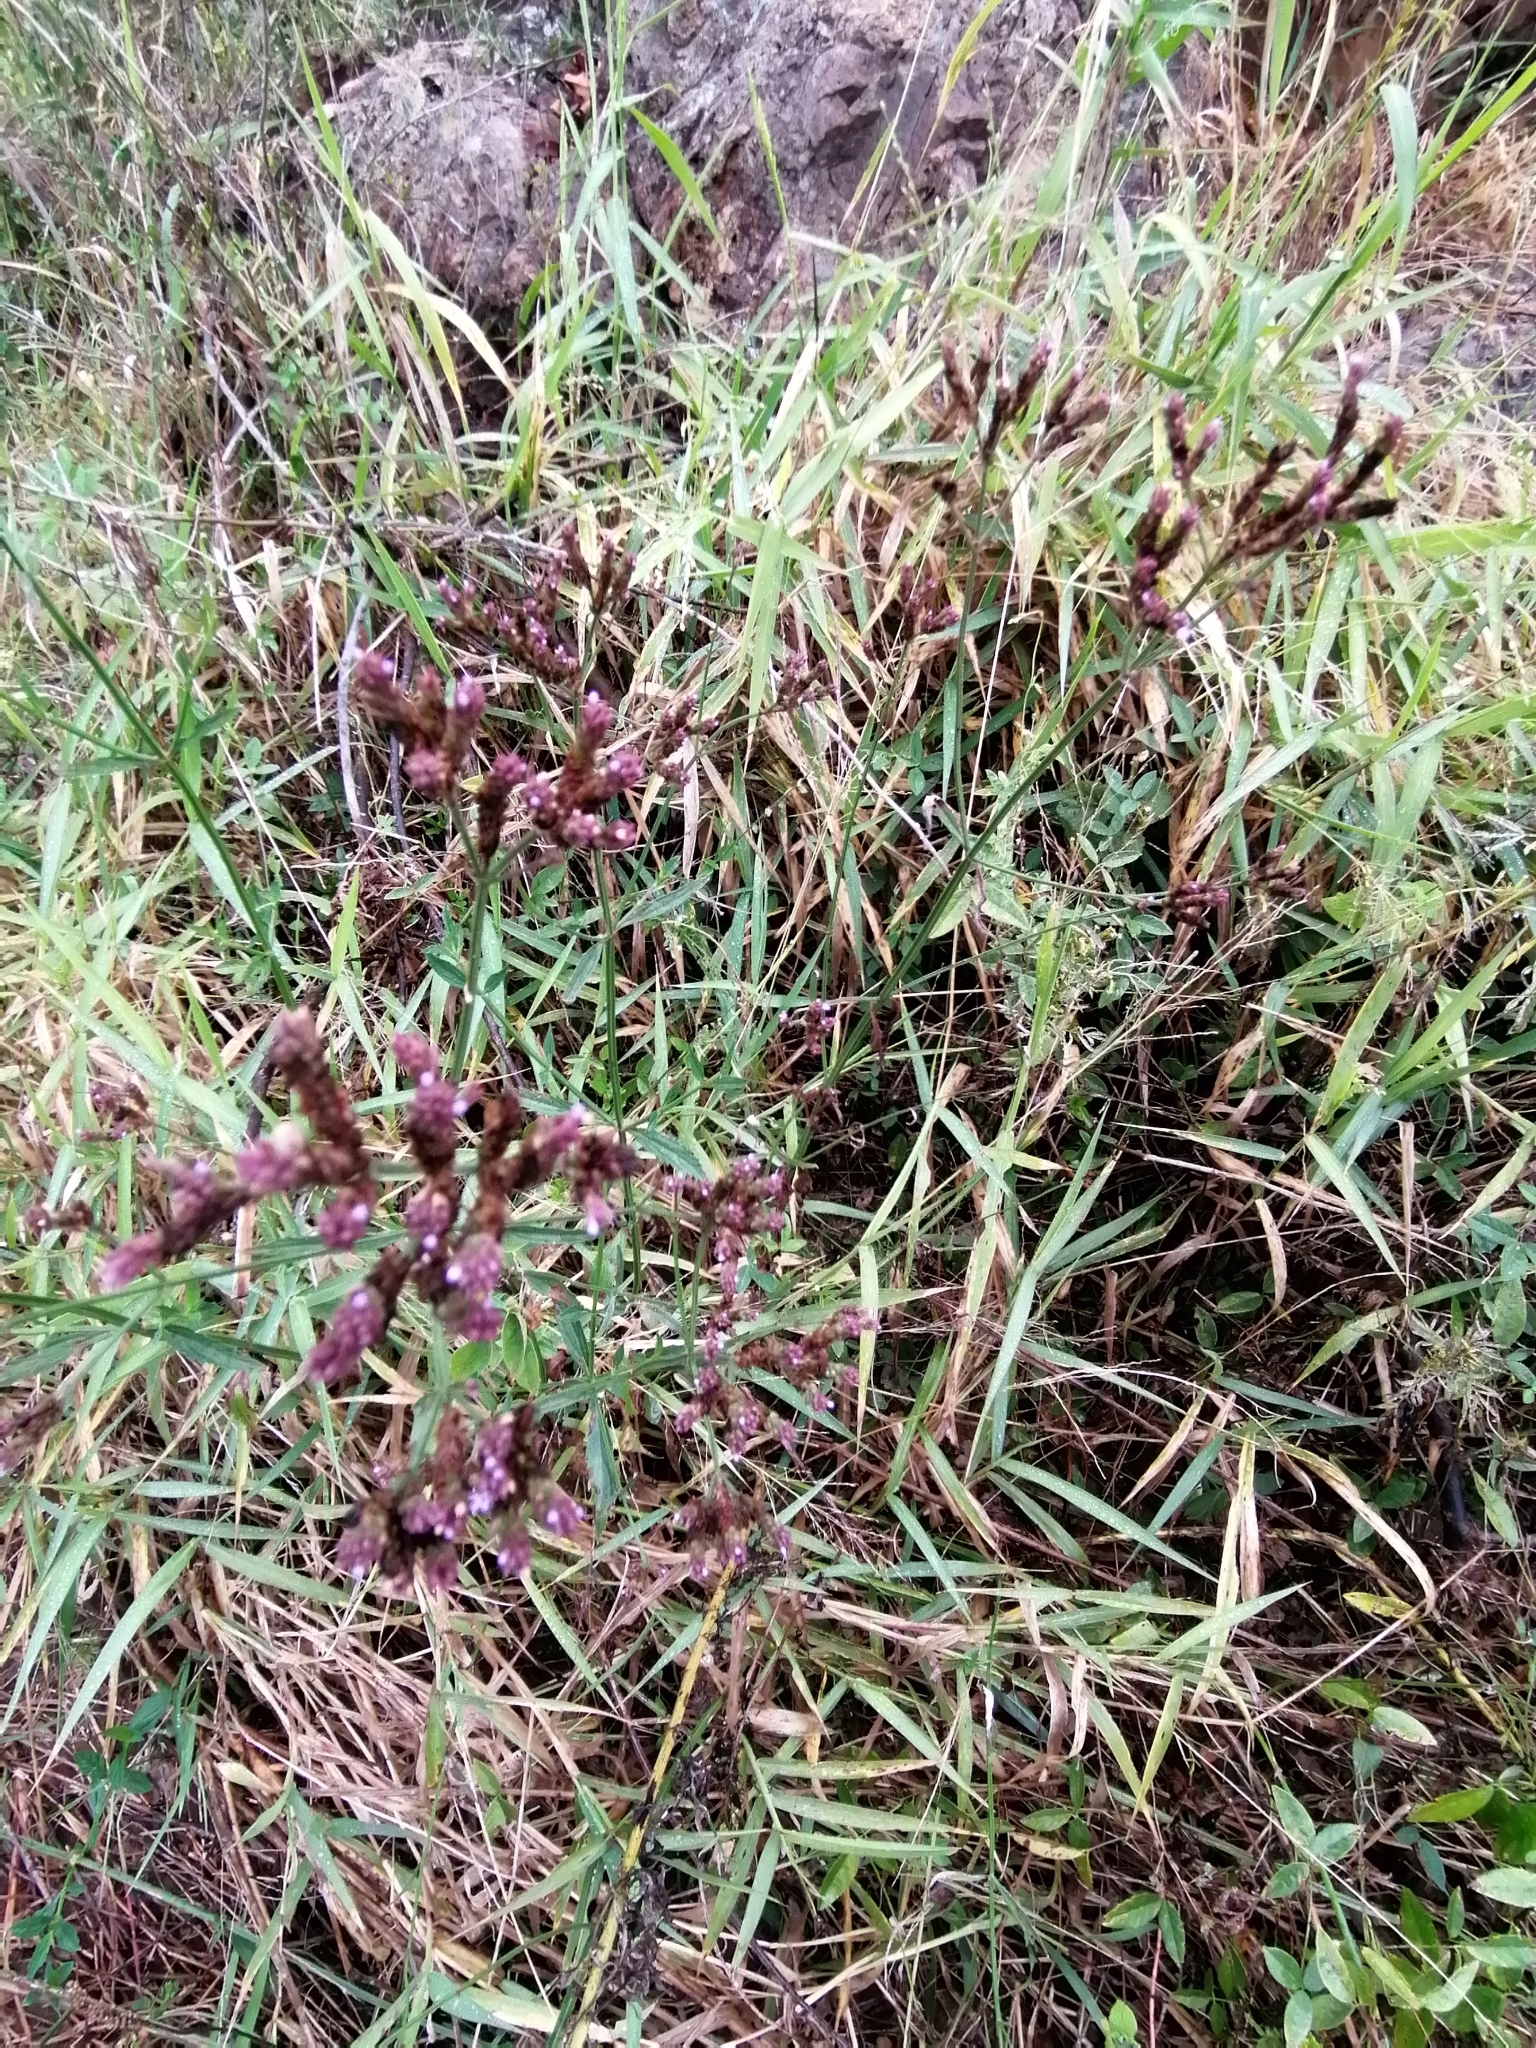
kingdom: Plantae
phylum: Tracheophyta
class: Magnoliopsida
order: Lamiales
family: Verbenaceae
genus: Verbena
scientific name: Verbena brasiliensis
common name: Brazilian vervain
